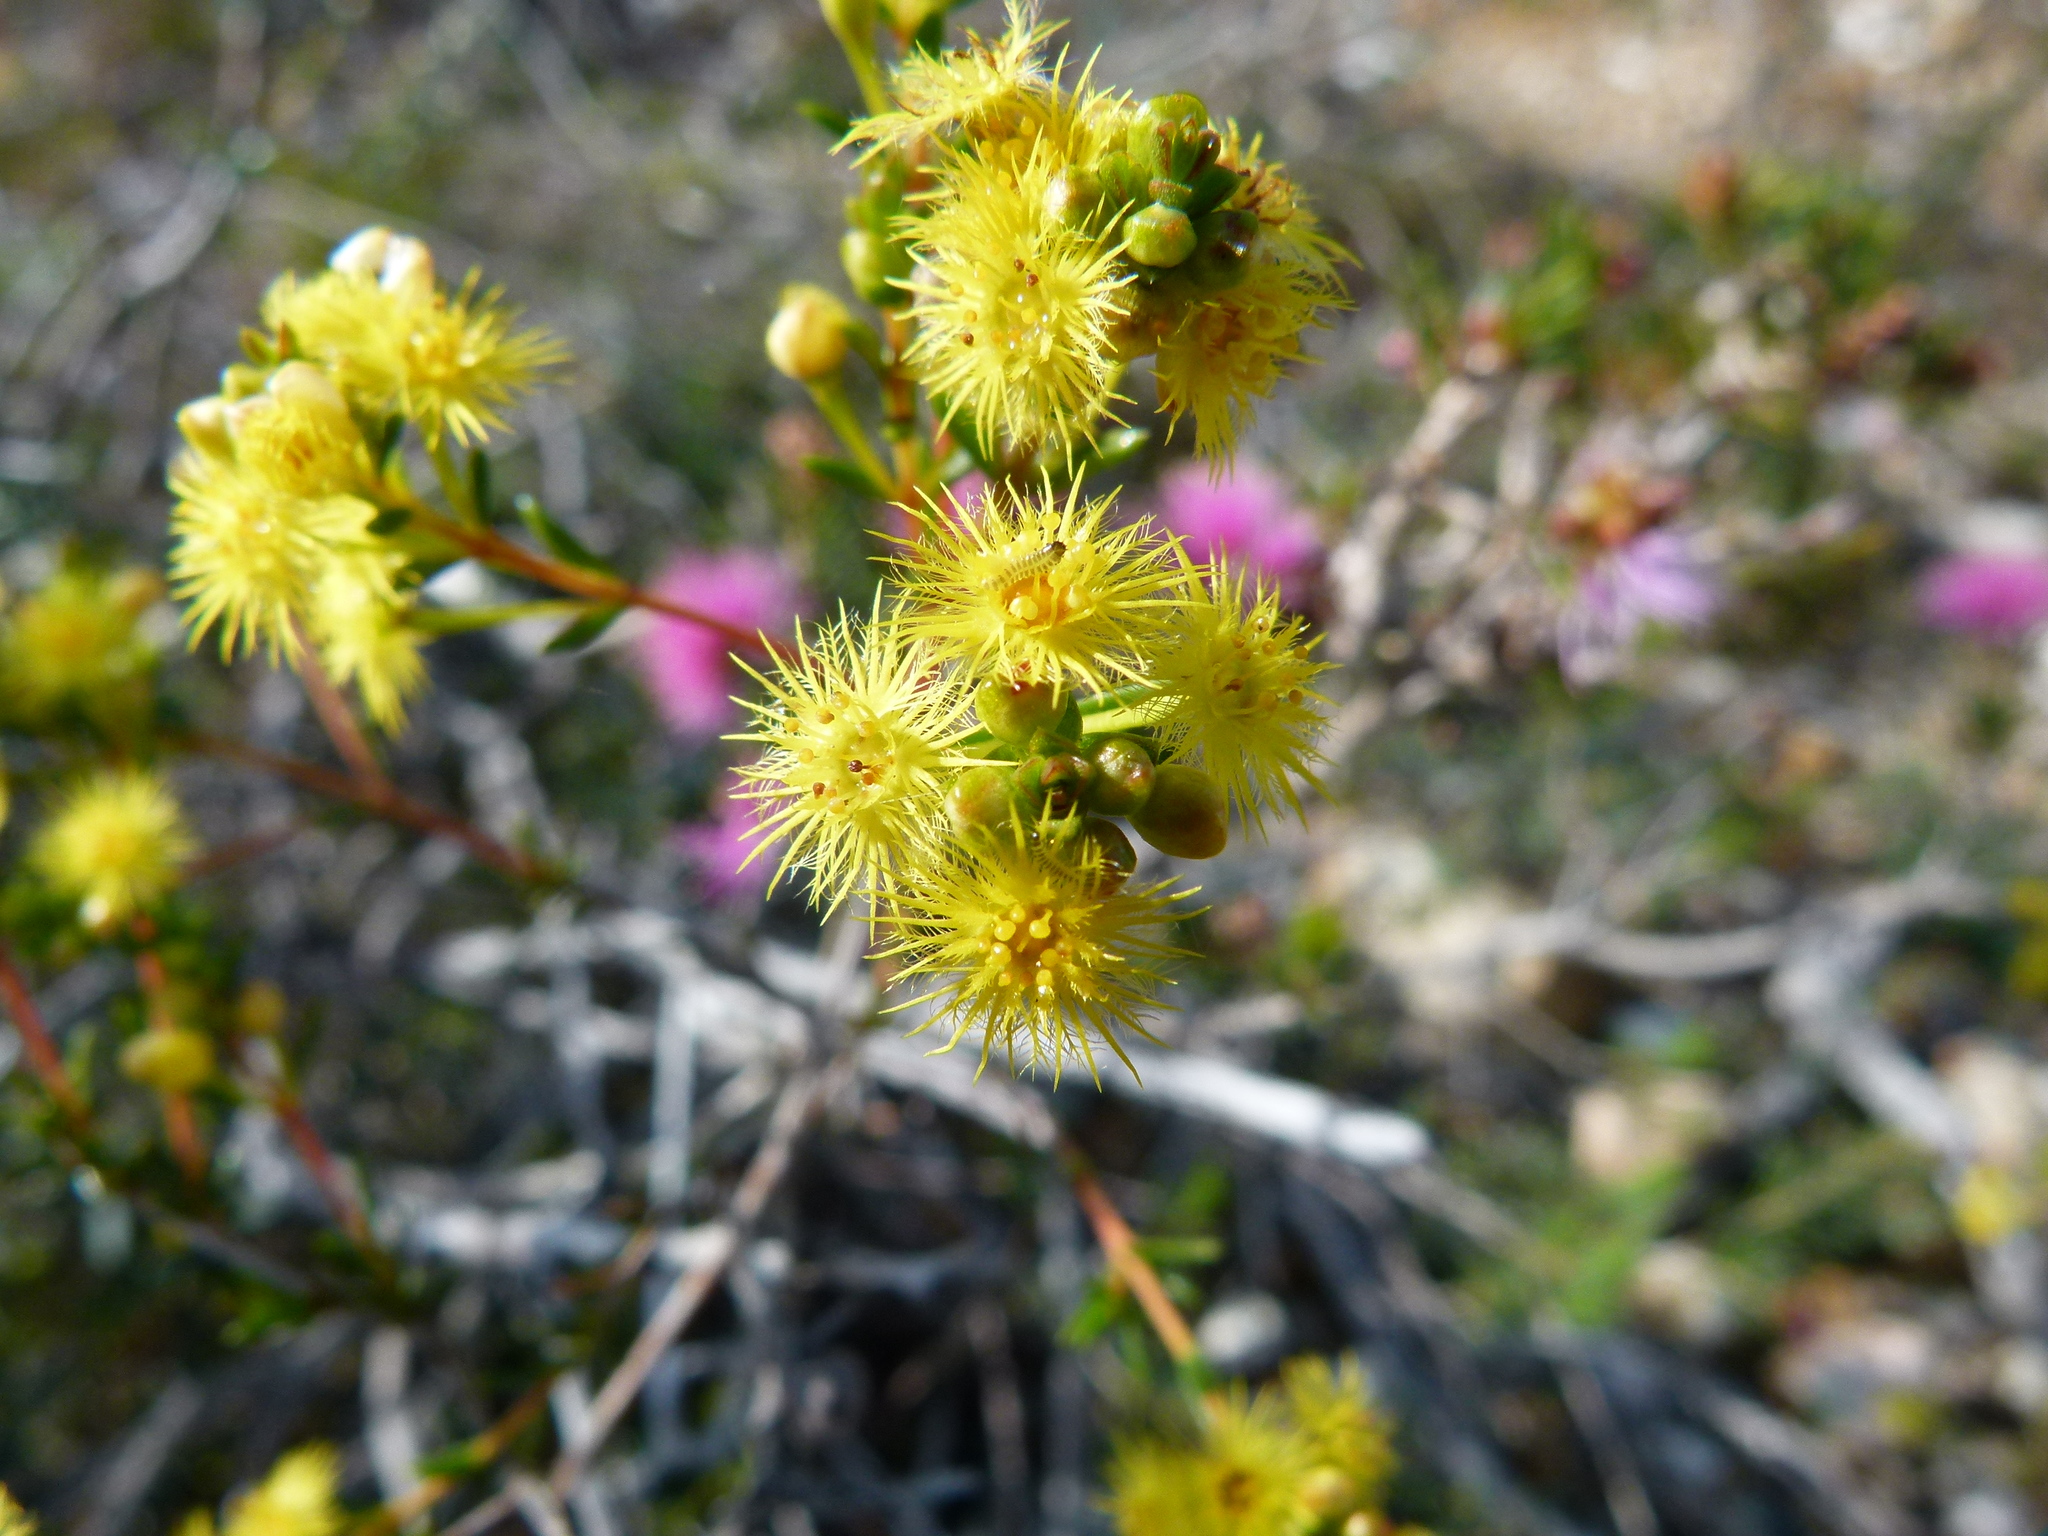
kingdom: Plantae
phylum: Tracheophyta
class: Magnoliopsida
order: Myrtales
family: Myrtaceae
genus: Verticordia
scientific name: Verticordia acerosa
